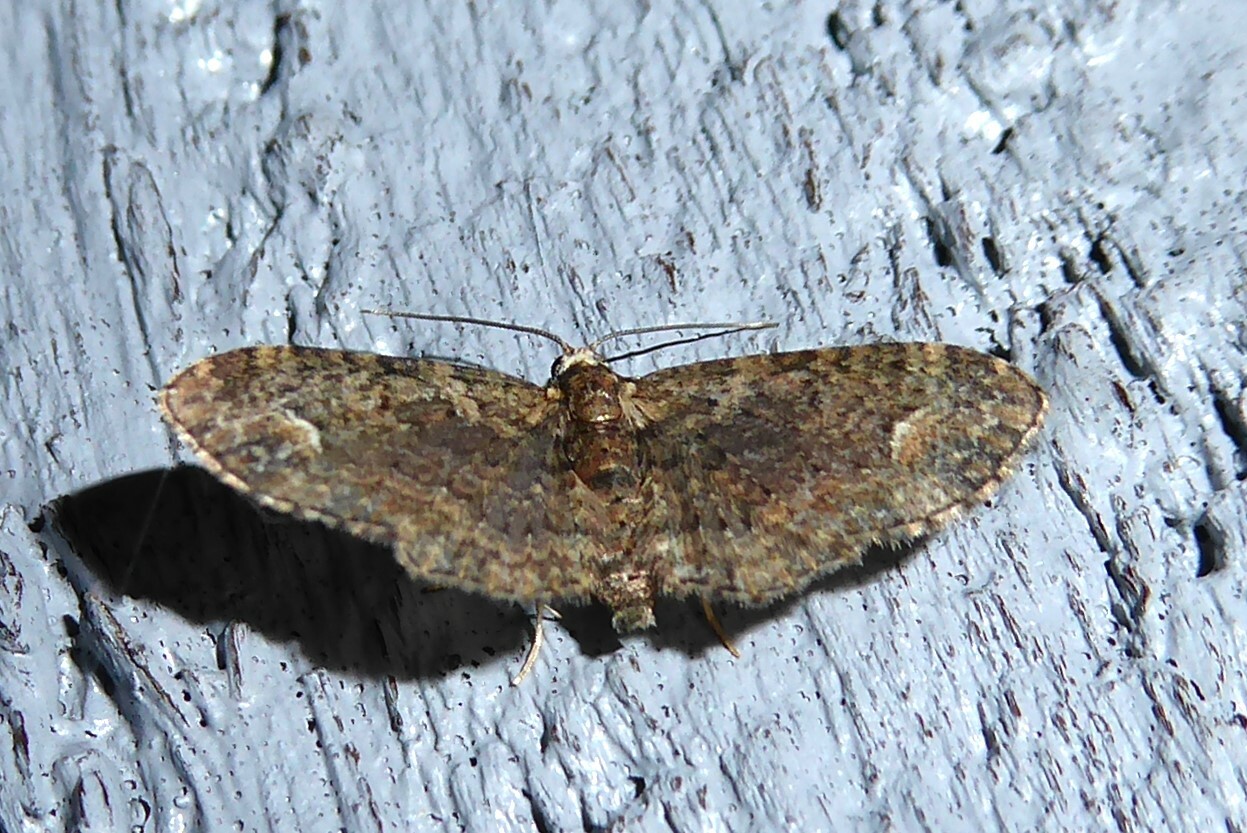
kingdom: Animalia
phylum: Arthropoda
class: Insecta
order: Lepidoptera
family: Geometridae
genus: Pasiphilodes
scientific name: Pasiphilodes testulata
